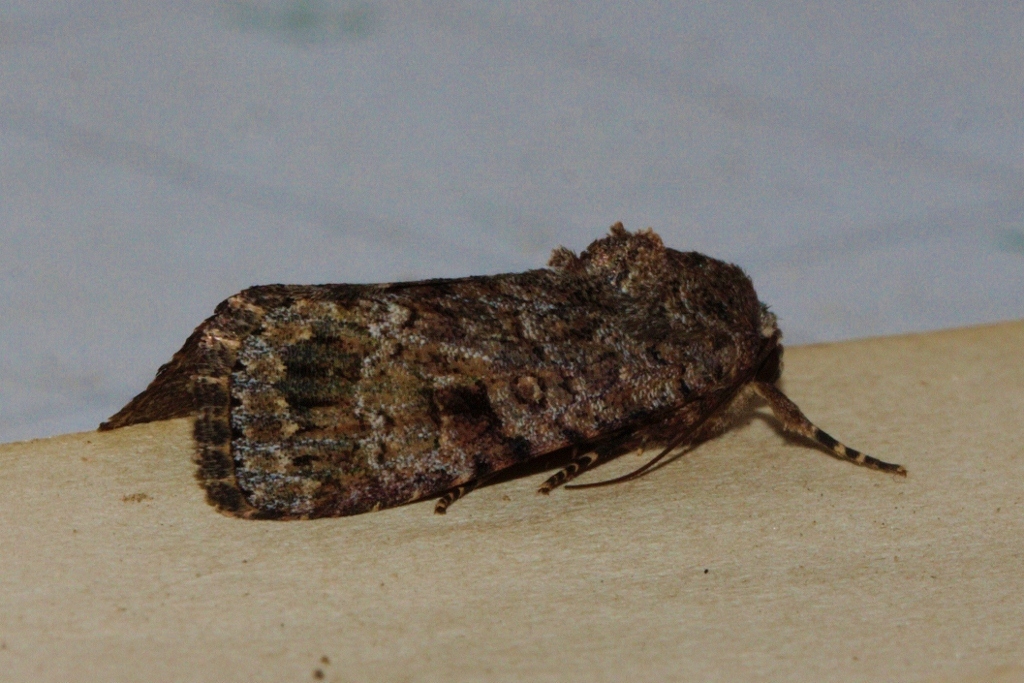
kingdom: Animalia
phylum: Arthropoda
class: Insecta
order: Lepidoptera
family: Noctuidae
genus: Spodoptera
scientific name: Spodoptera cilium
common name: Dark mottled willow
